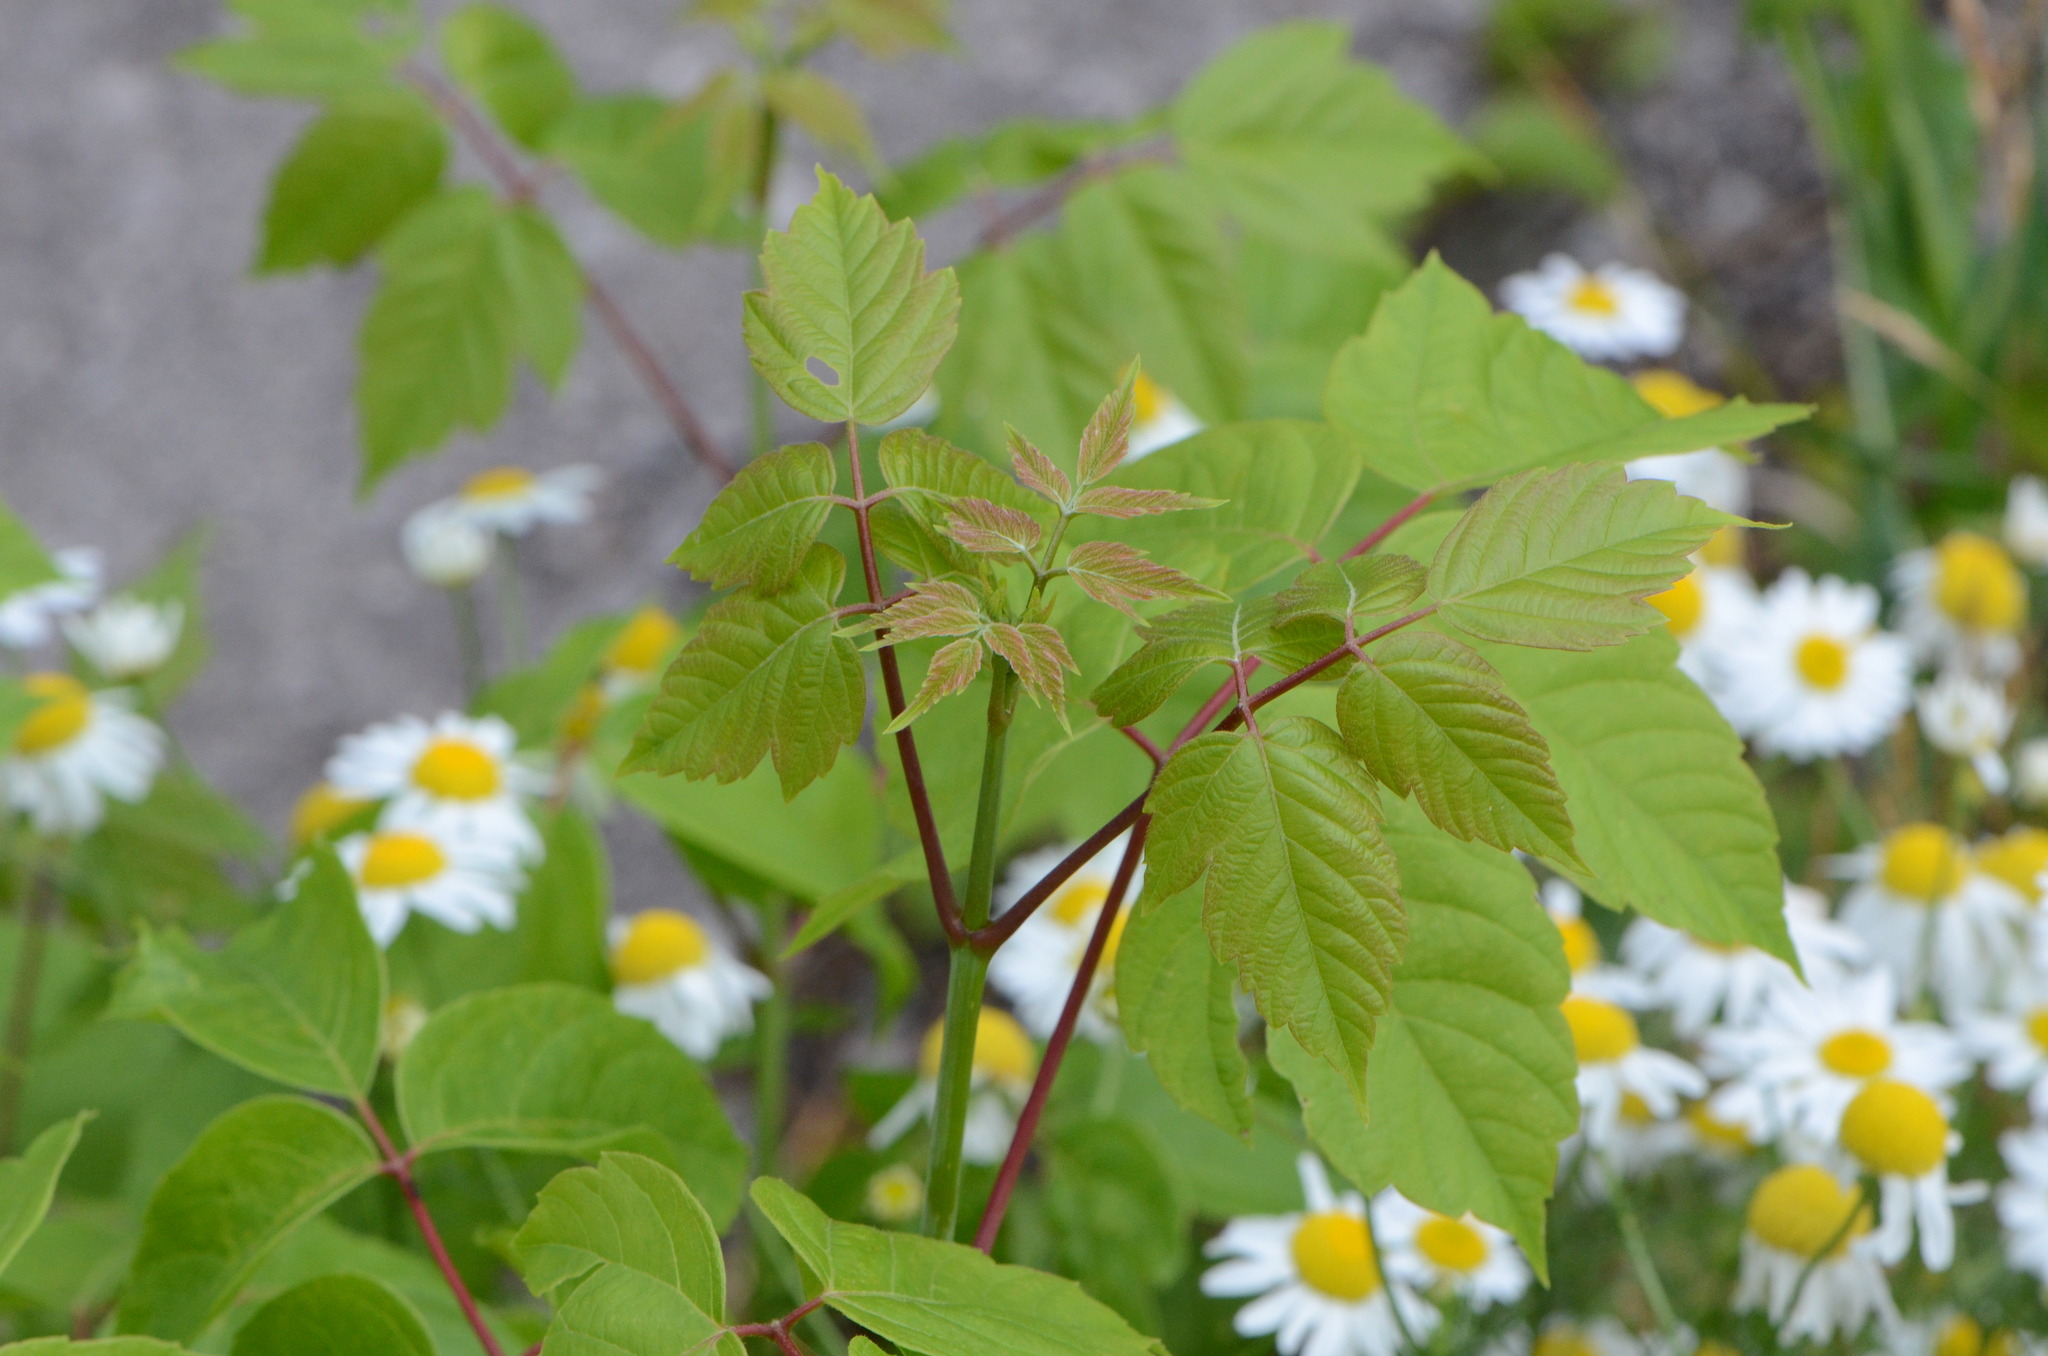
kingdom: Plantae
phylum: Tracheophyta
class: Magnoliopsida
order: Sapindales
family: Sapindaceae
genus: Acer
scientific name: Acer negundo
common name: Ashleaf maple
